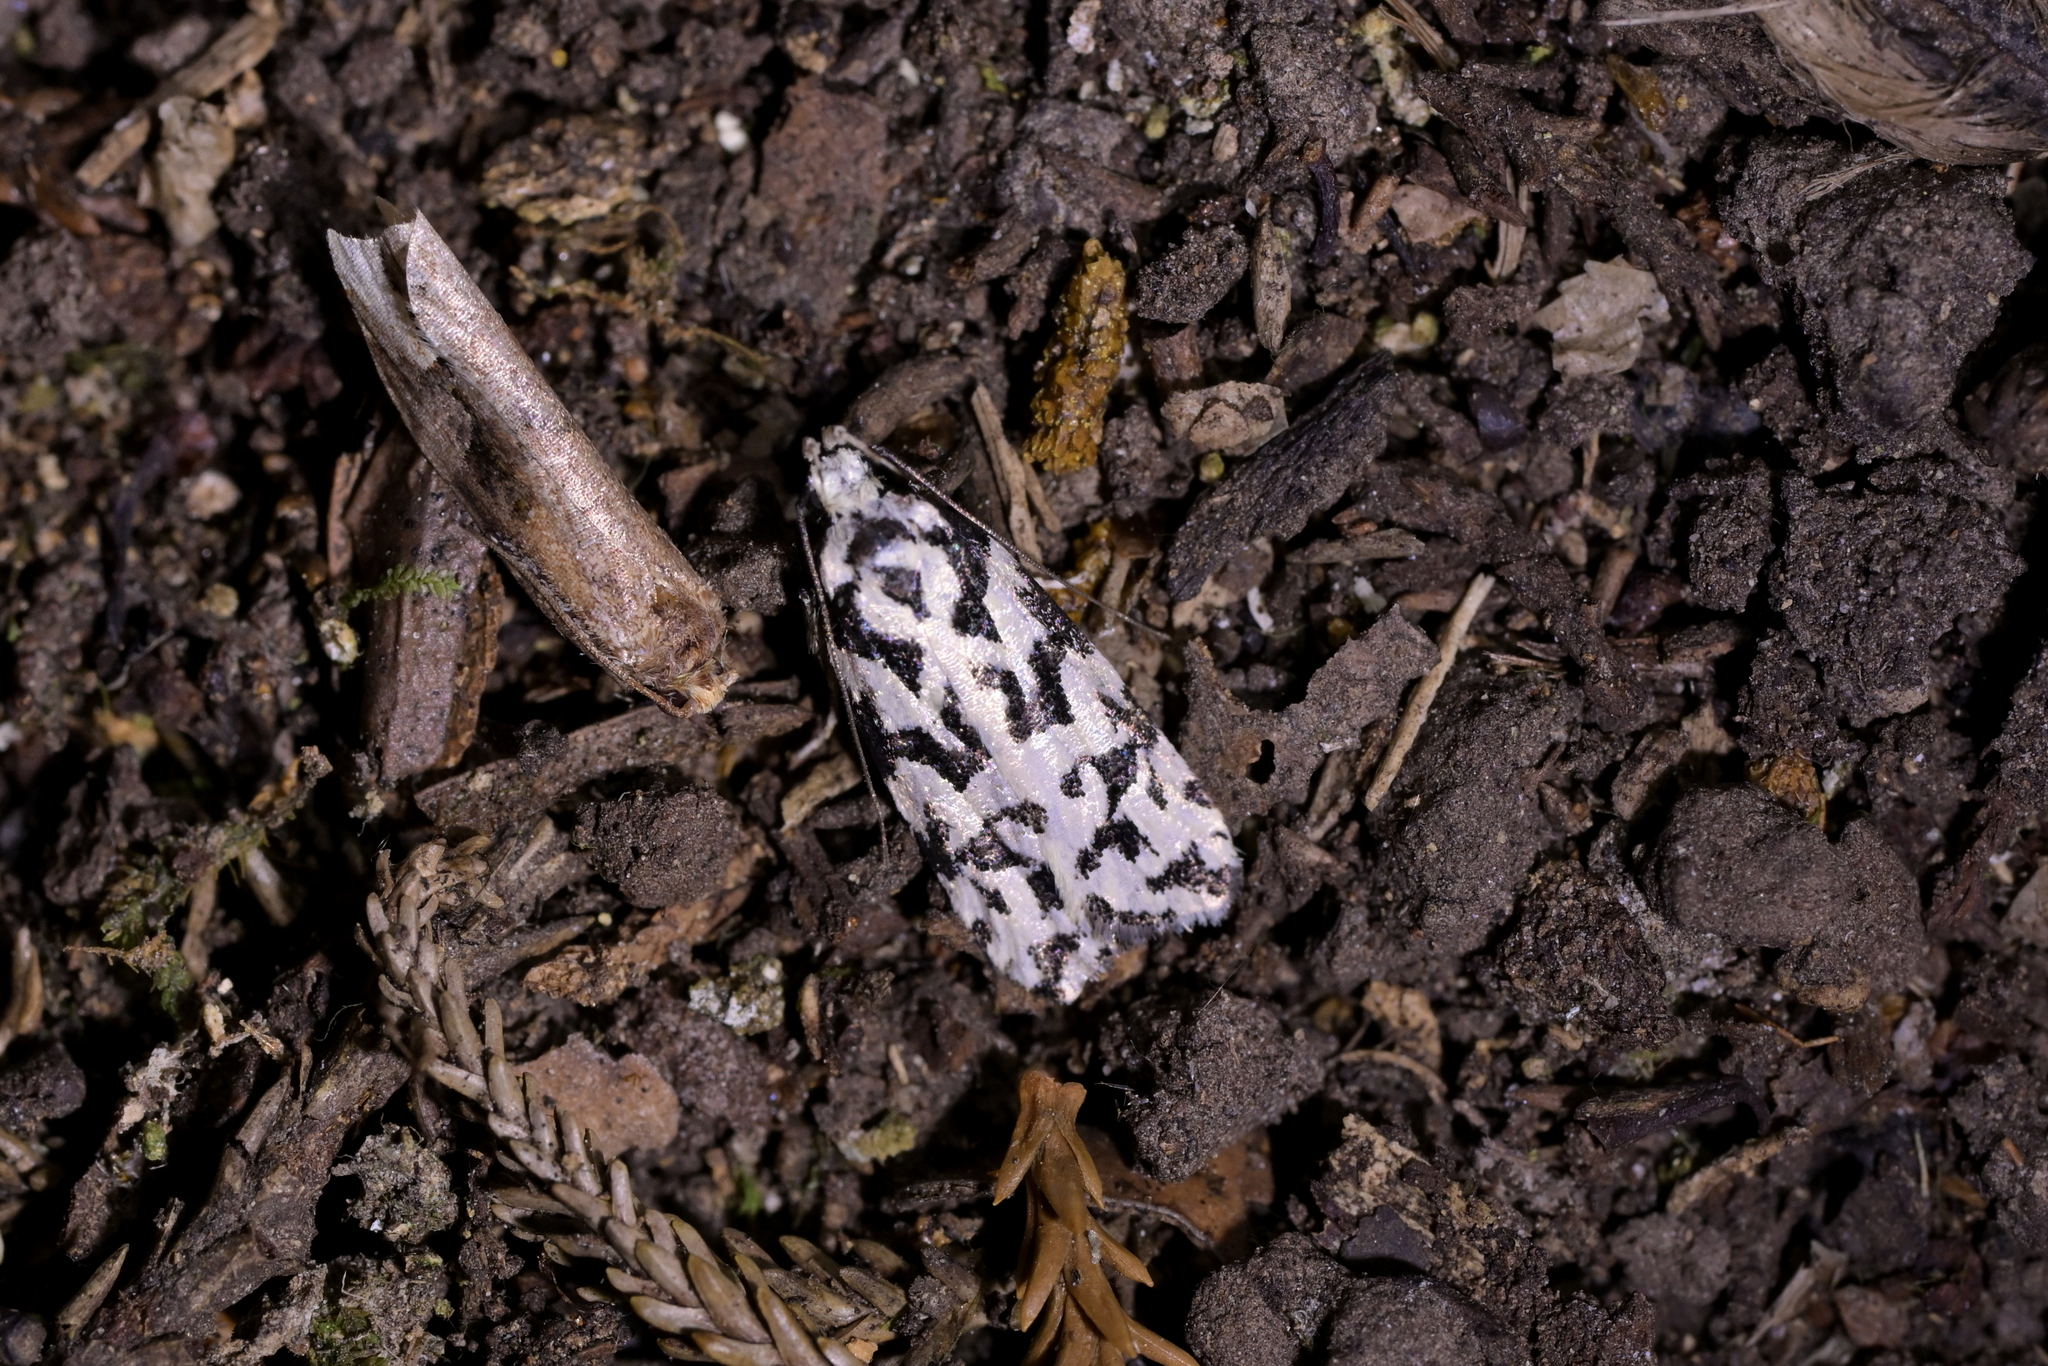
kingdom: Animalia
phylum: Arthropoda
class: Insecta
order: Lepidoptera
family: Oecophoridae
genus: Izatha
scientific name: Izatha
